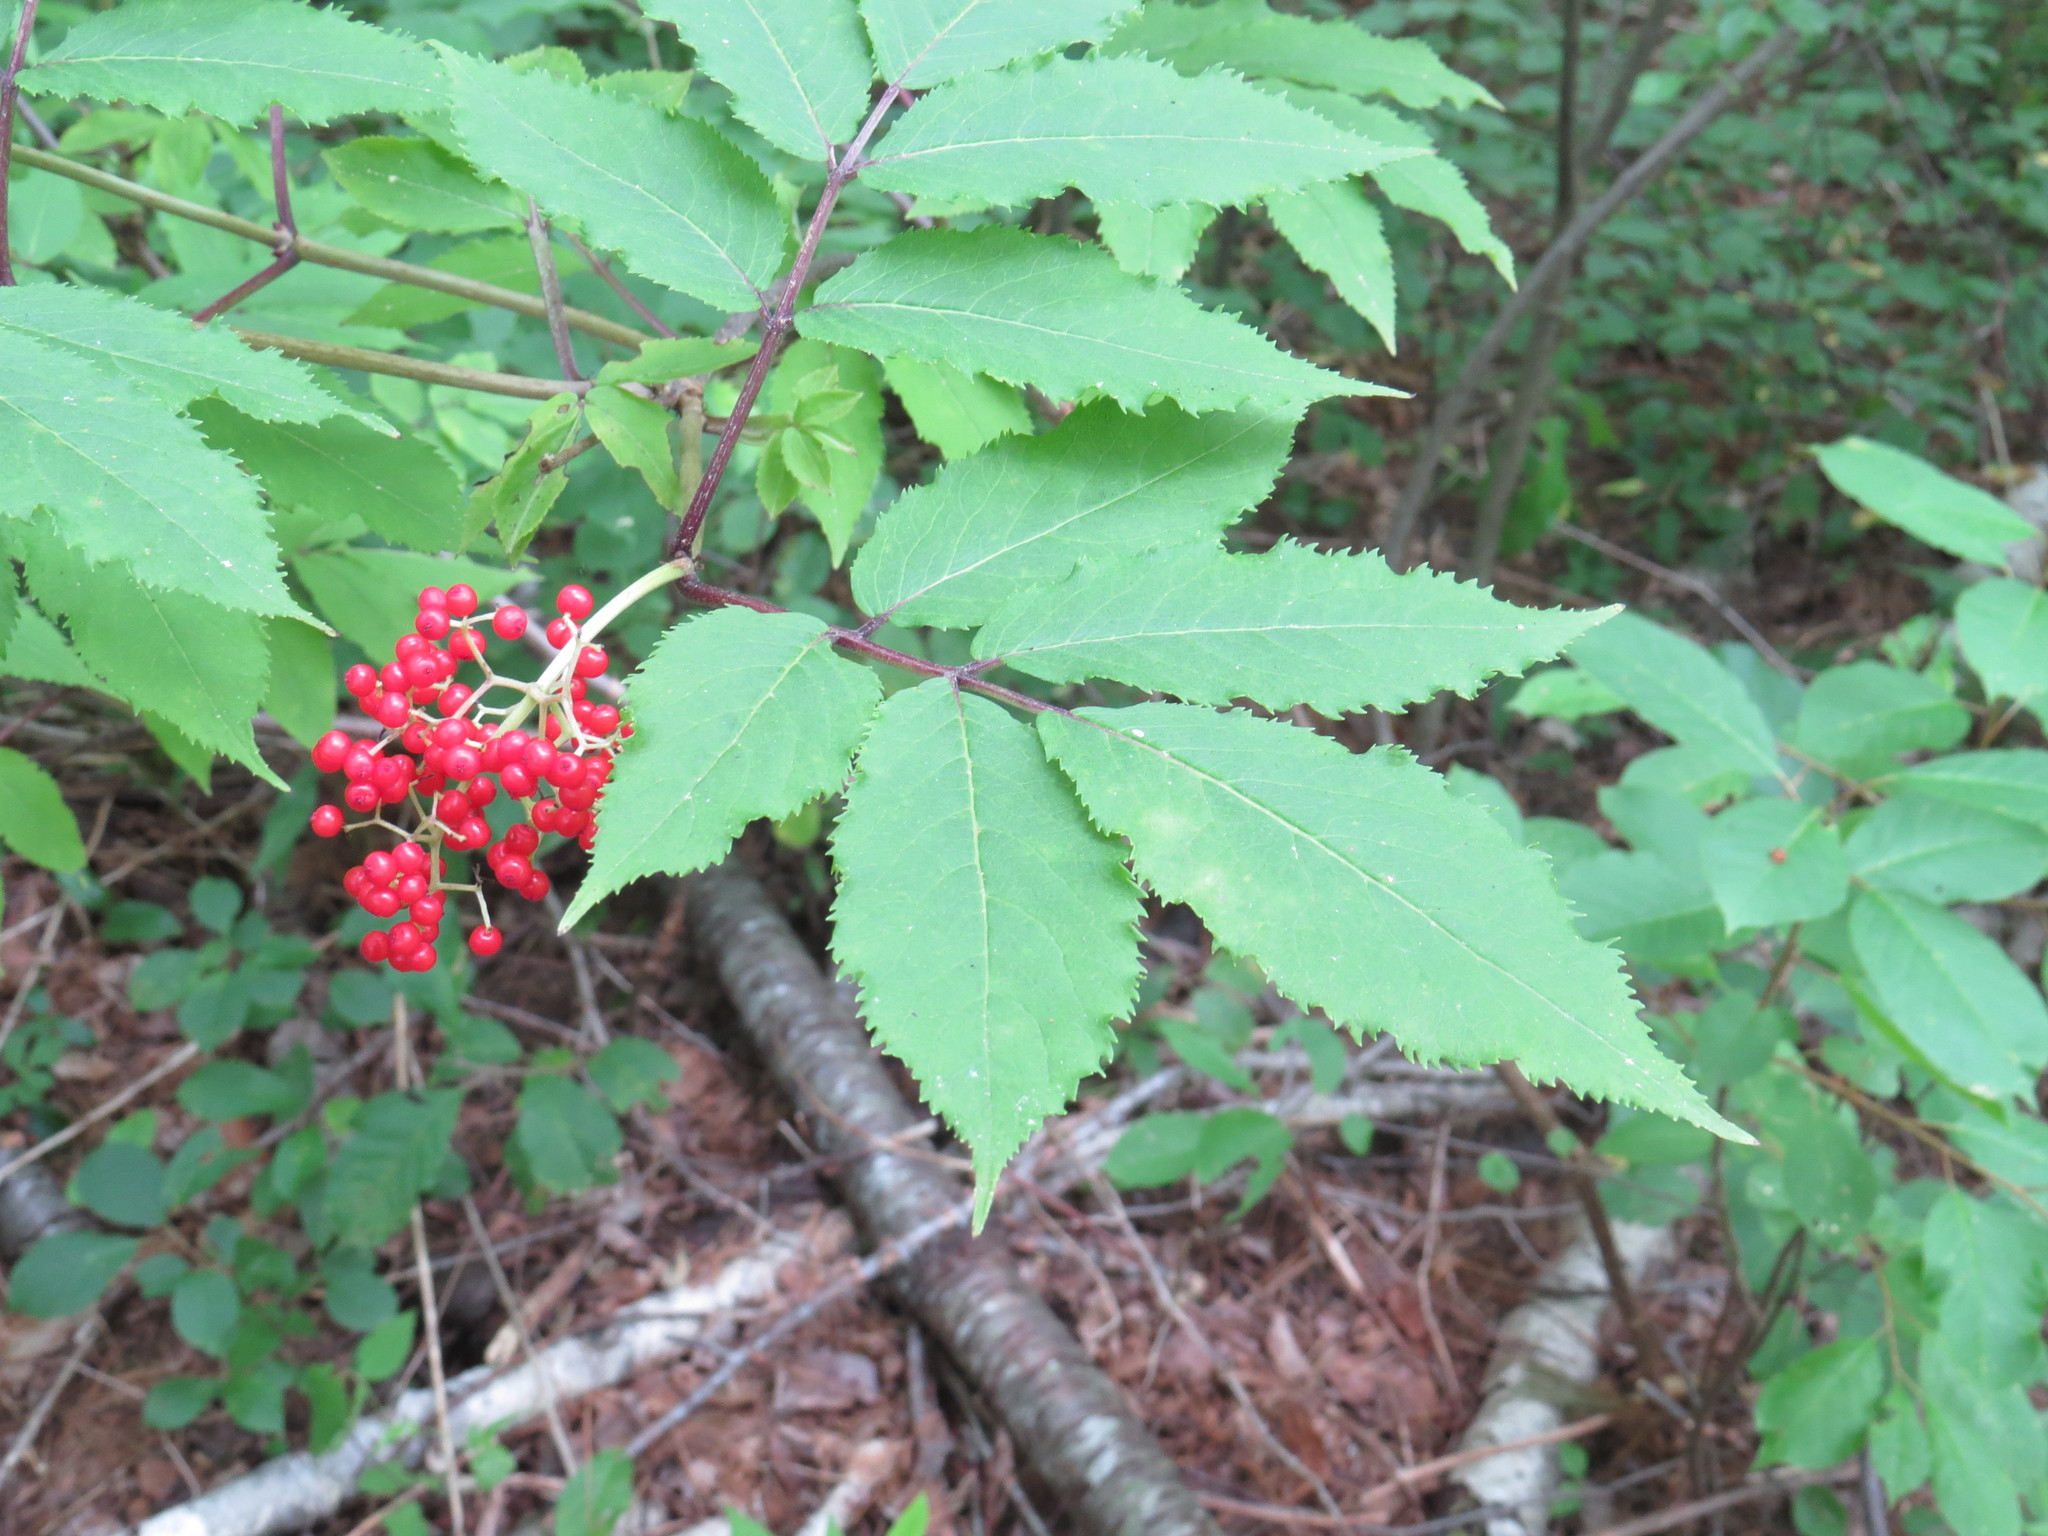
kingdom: Plantae
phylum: Tracheophyta
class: Magnoliopsida
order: Dipsacales
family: Viburnaceae
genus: Sambucus
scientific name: Sambucus racemosa
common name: Red-berried elder
